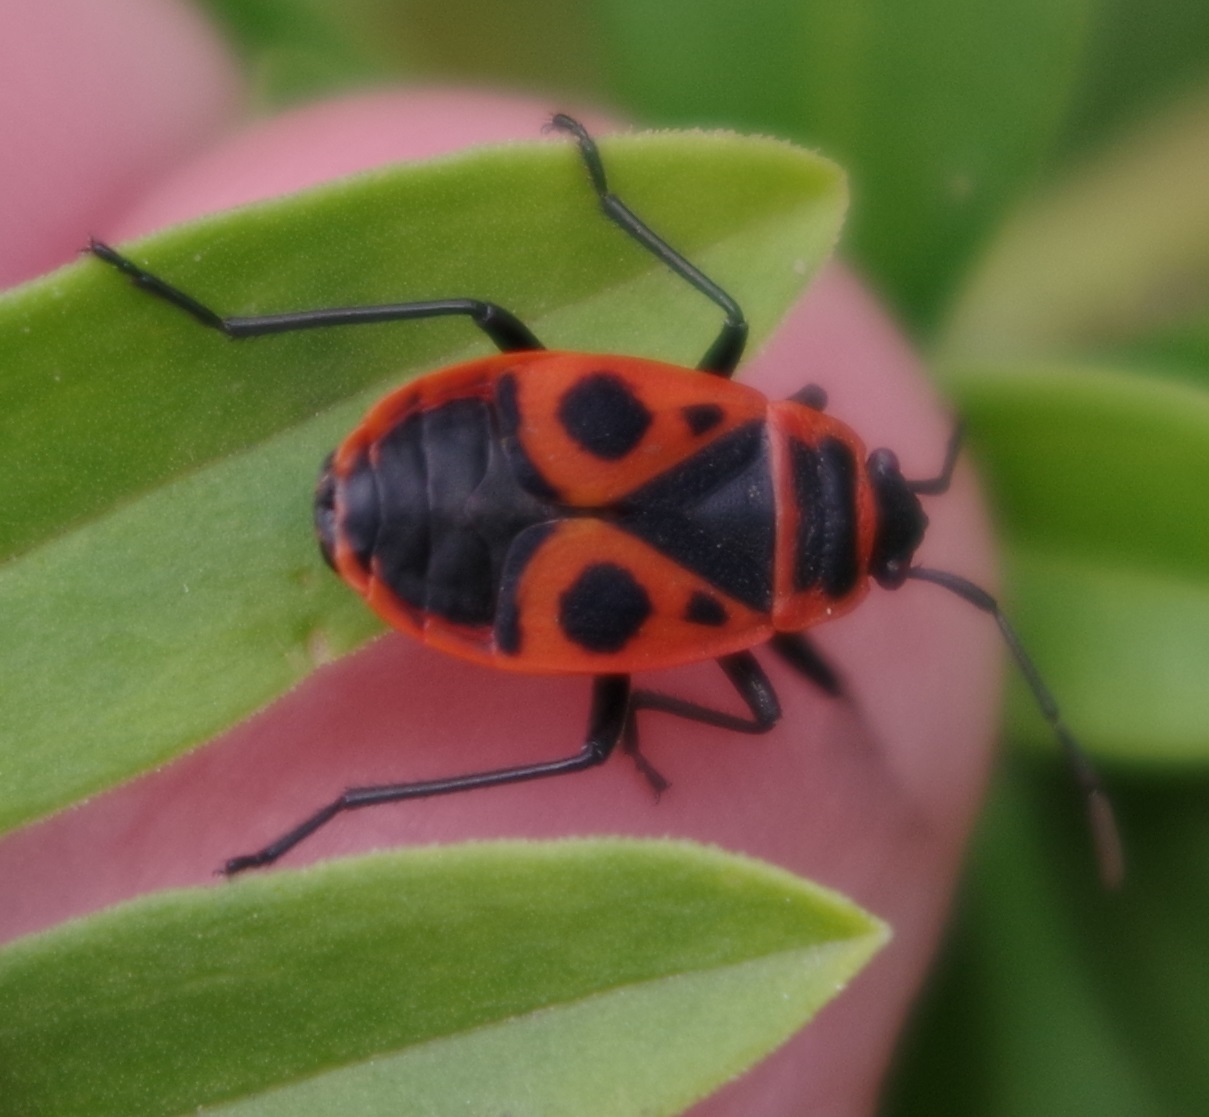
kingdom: Animalia
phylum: Arthropoda
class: Insecta
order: Hemiptera
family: Pyrrhocoridae
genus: Pyrrhocoris
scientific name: Pyrrhocoris apterus
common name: Firebug
